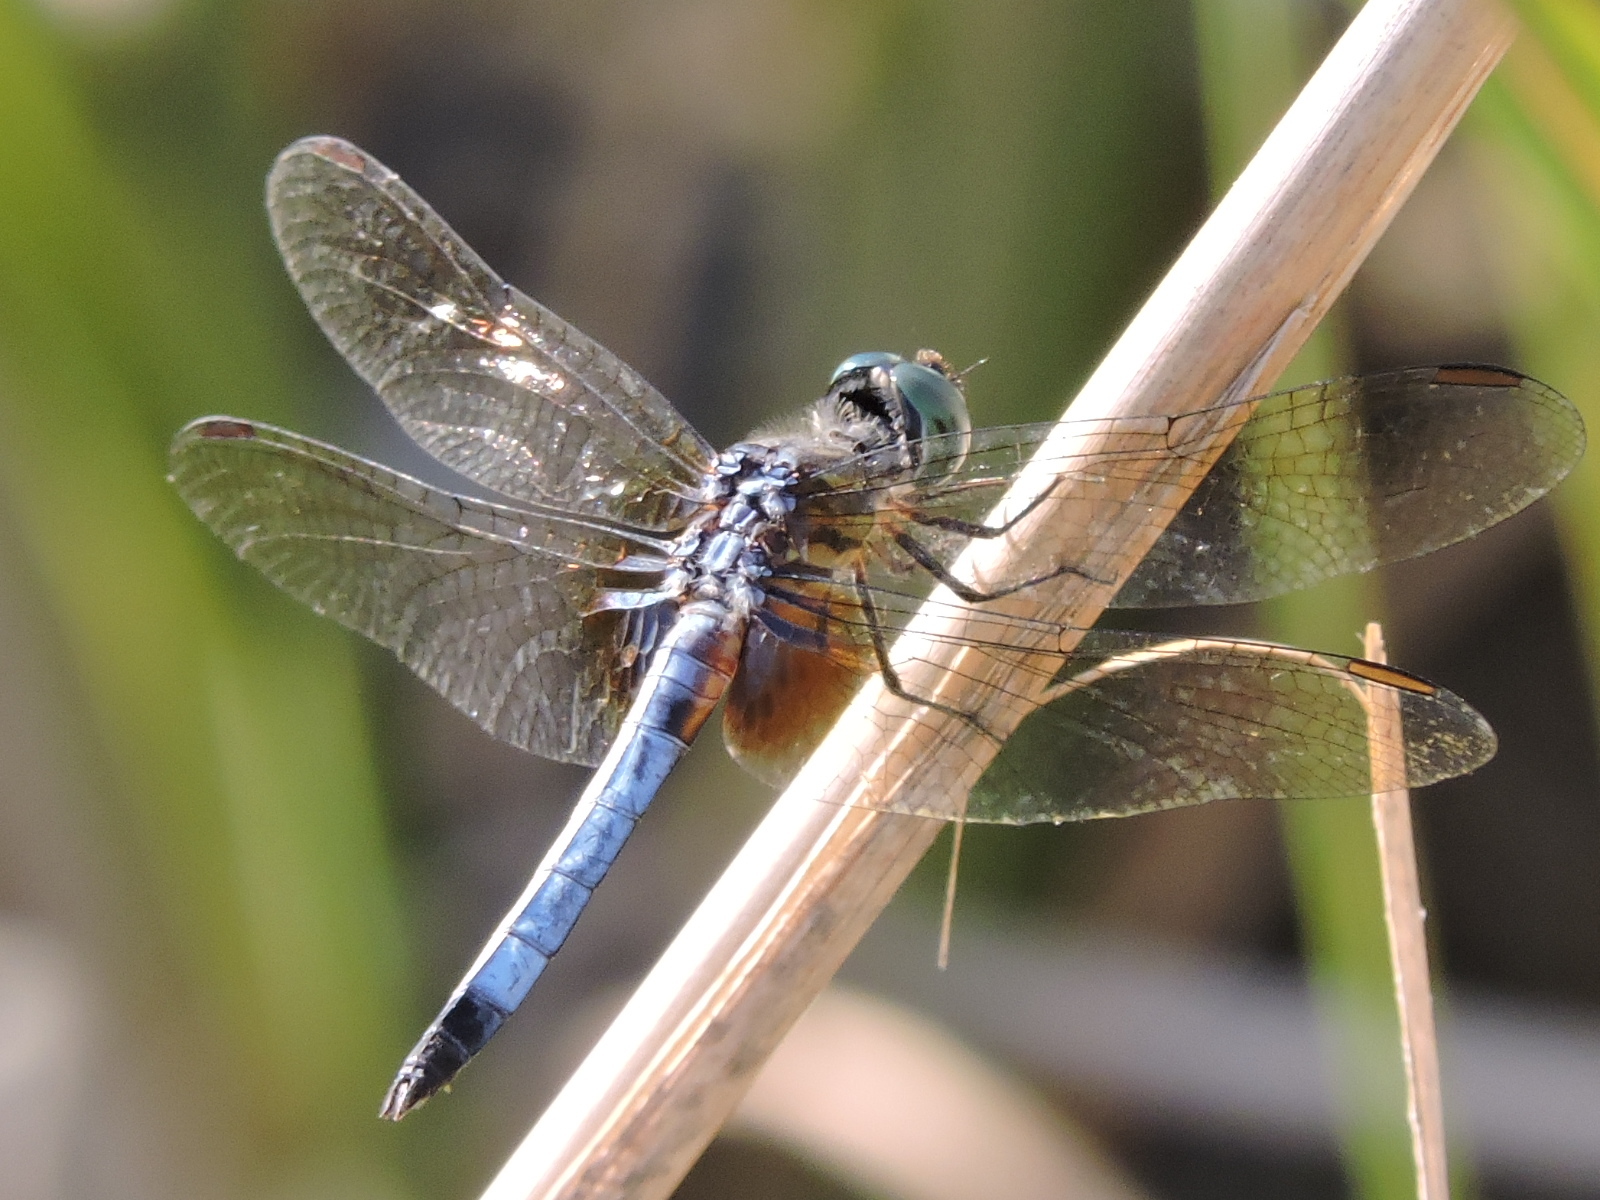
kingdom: Animalia
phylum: Arthropoda
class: Insecta
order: Odonata
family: Libellulidae
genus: Pachydiplax
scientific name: Pachydiplax longipennis
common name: Blue dasher
